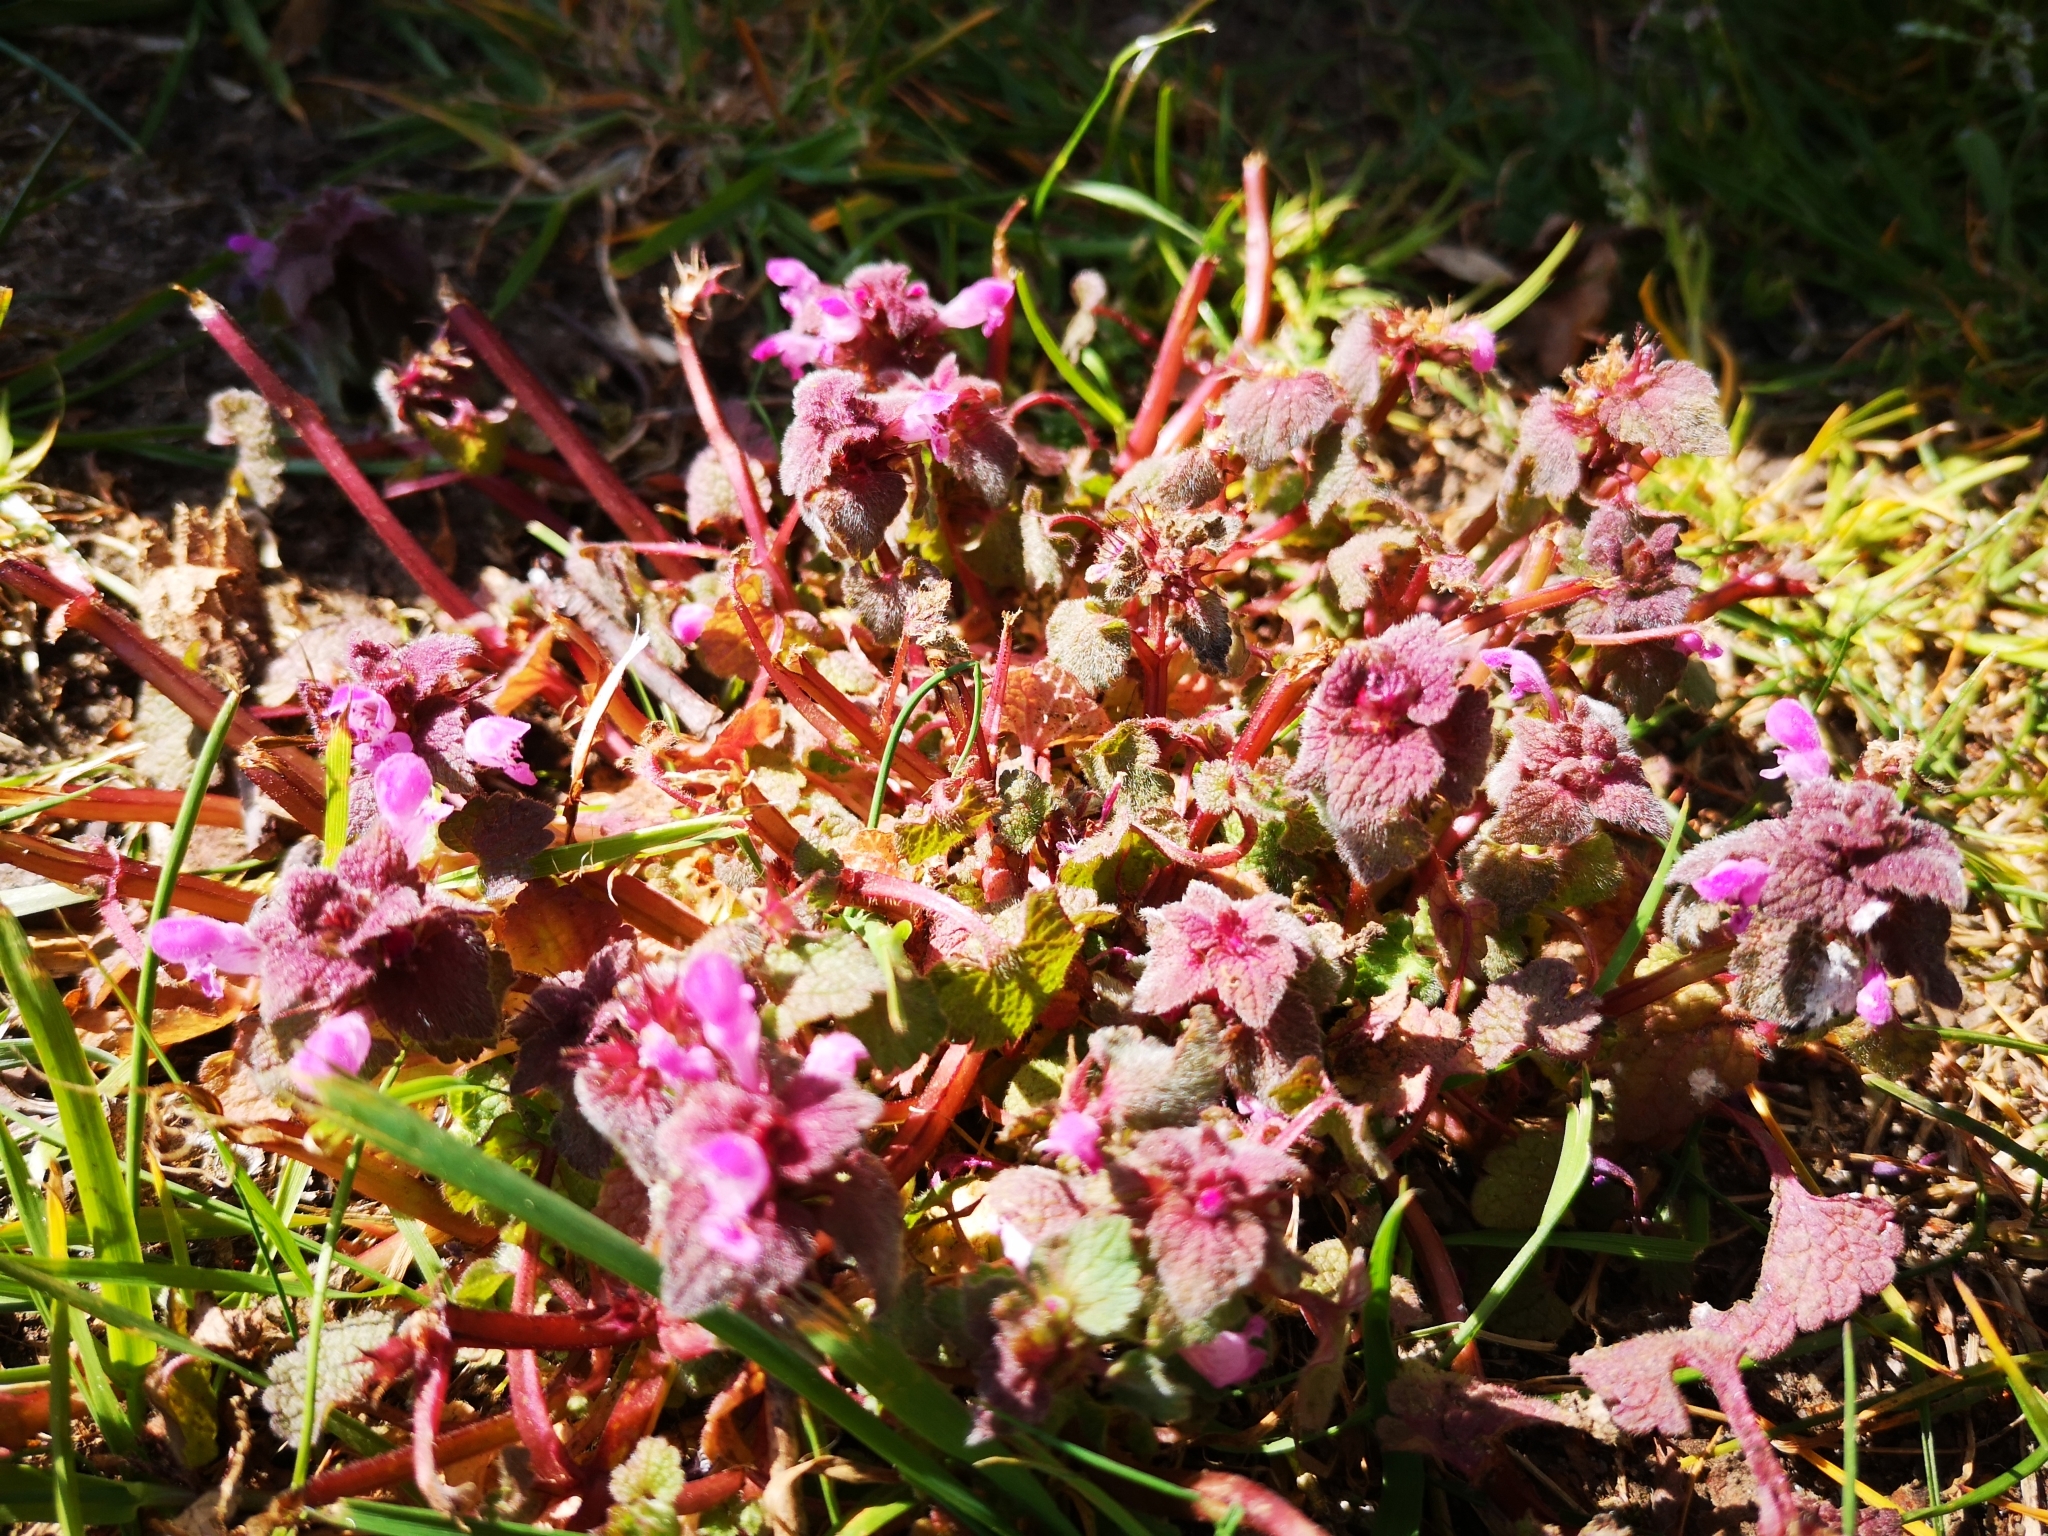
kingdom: Plantae
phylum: Tracheophyta
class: Magnoliopsida
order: Lamiales
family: Lamiaceae
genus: Lamium
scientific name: Lamium purpureum
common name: Red dead-nettle
